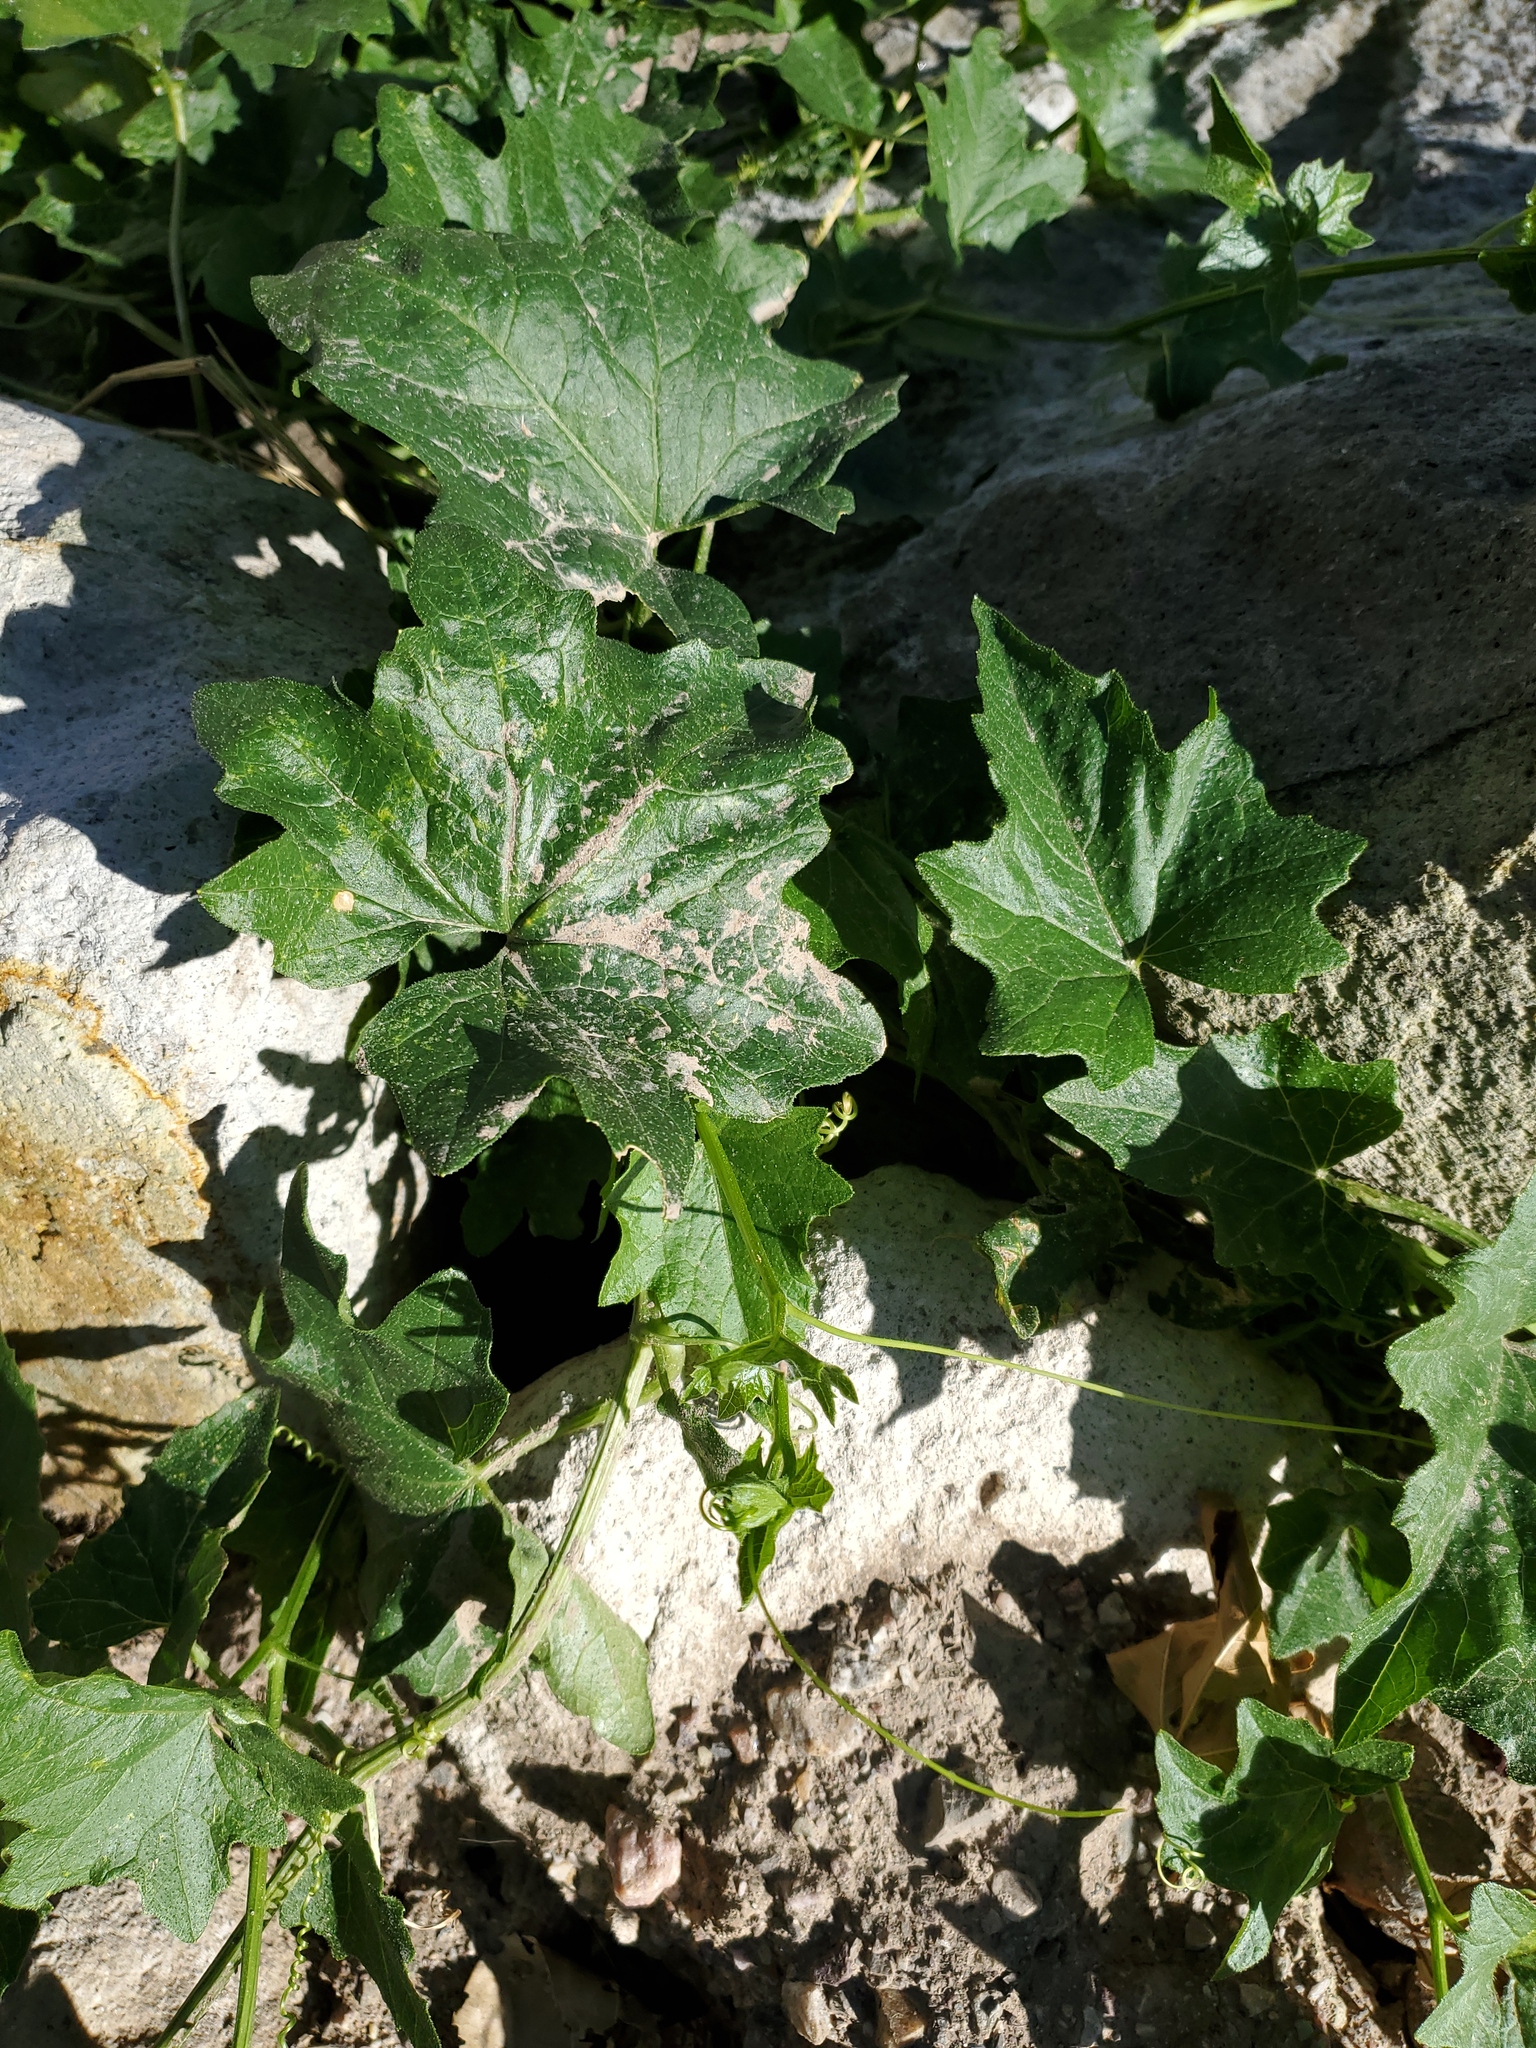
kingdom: Plantae
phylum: Tracheophyta
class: Magnoliopsida
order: Cucurbitales
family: Cucurbitaceae
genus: Bryonia
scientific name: Bryonia alba
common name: White bryony
